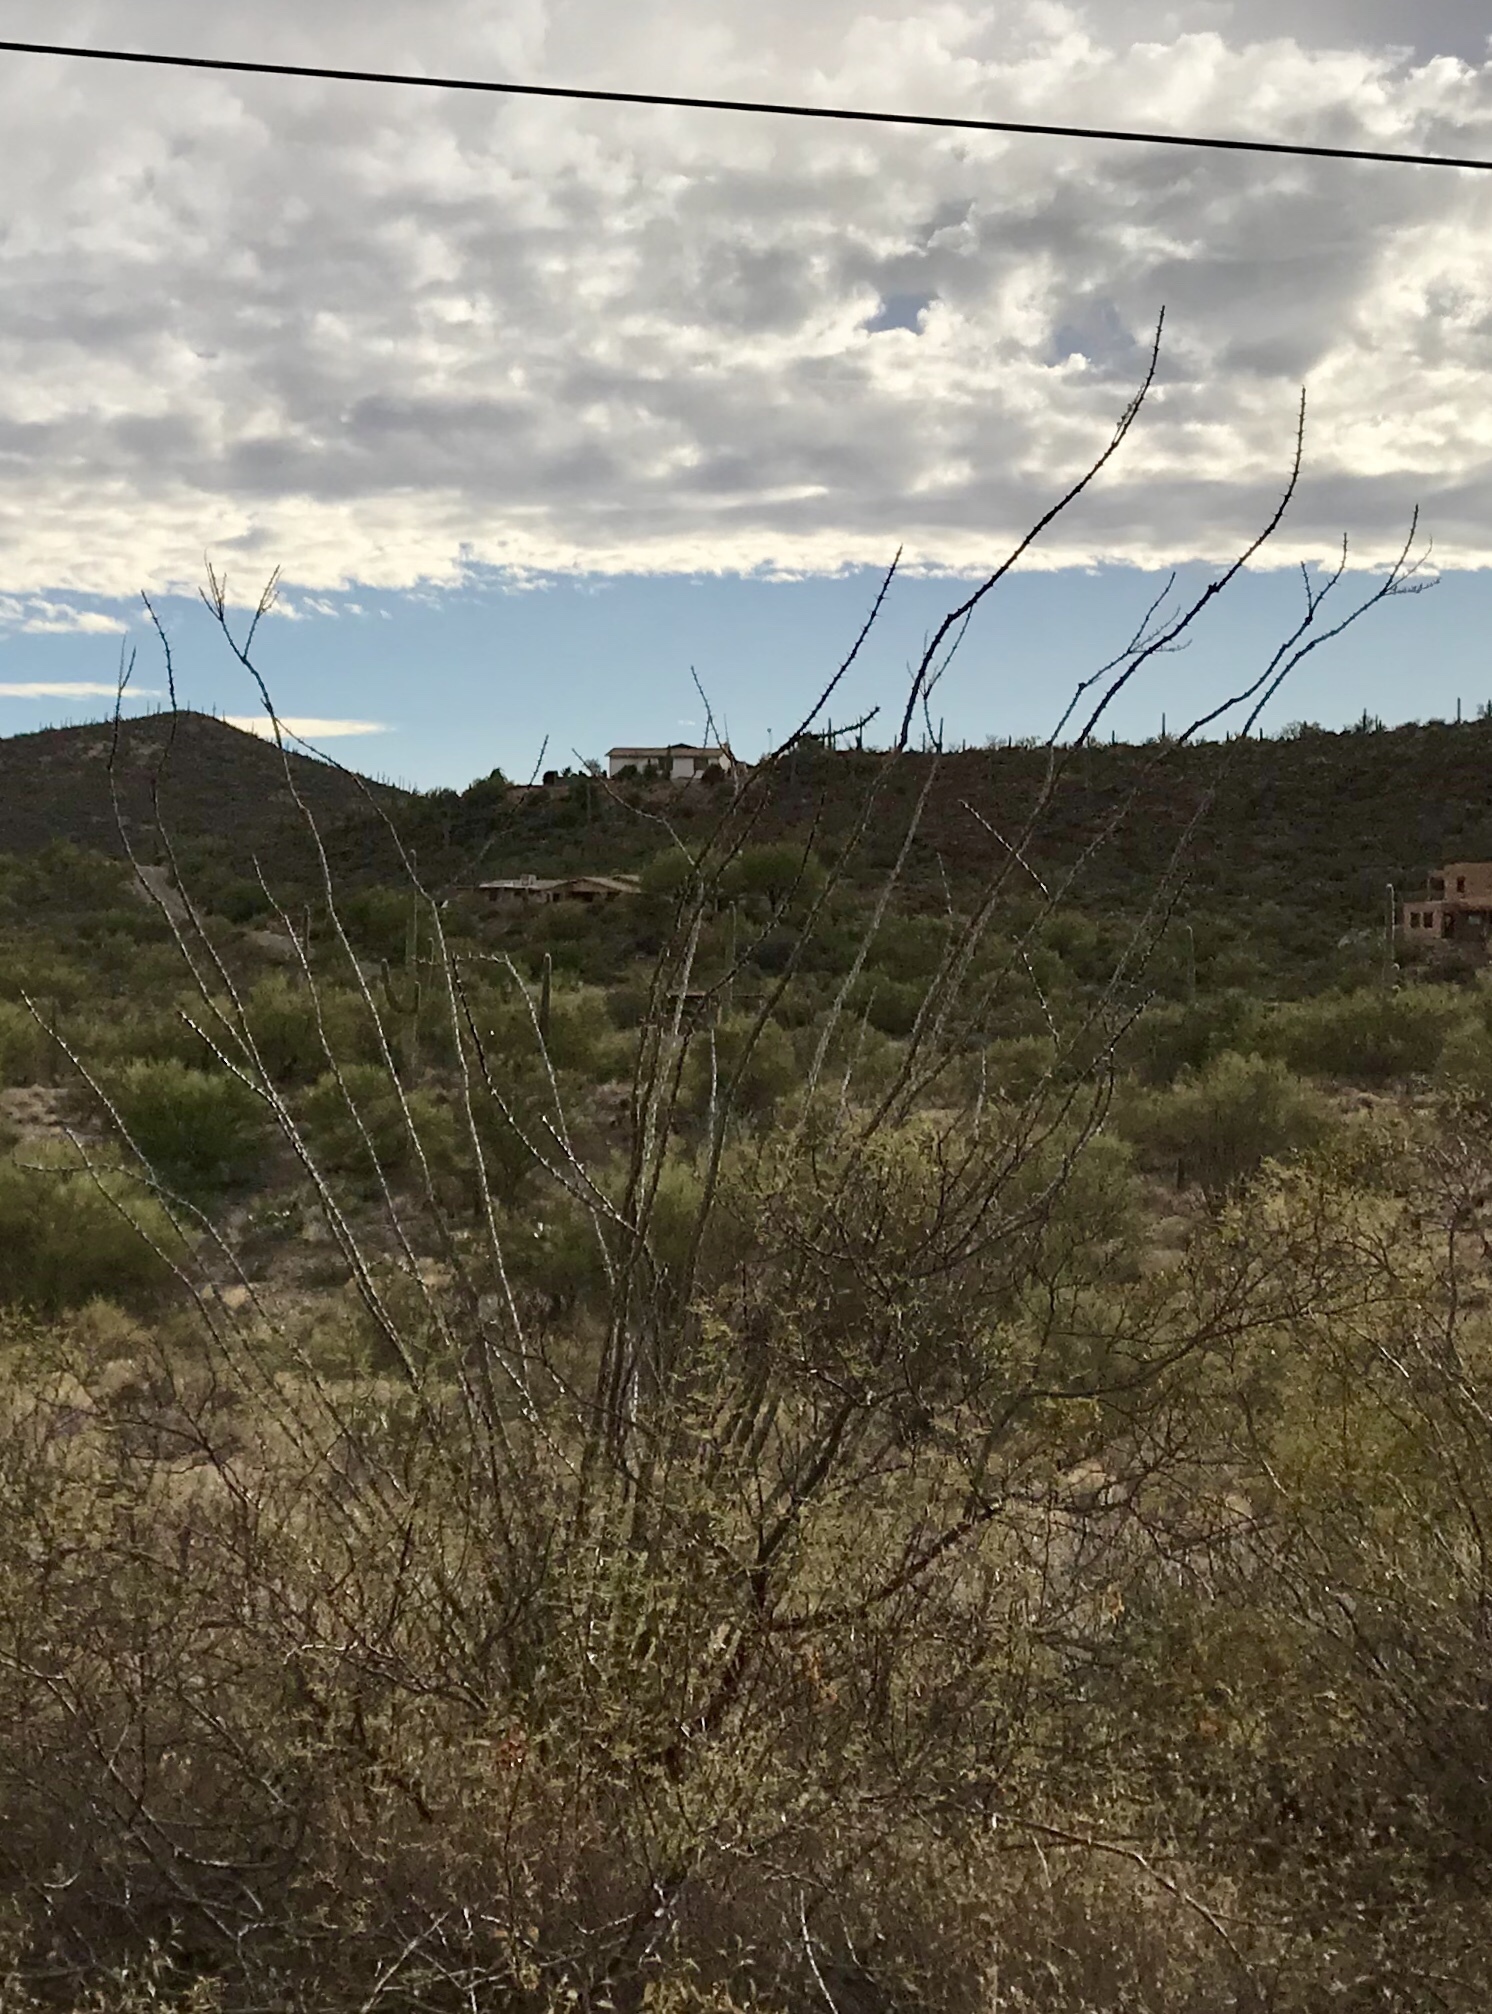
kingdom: Plantae
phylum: Tracheophyta
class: Magnoliopsida
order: Ericales
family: Fouquieriaceae
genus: Fouquieria
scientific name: Fouquieria splendens
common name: Vine-cactus
